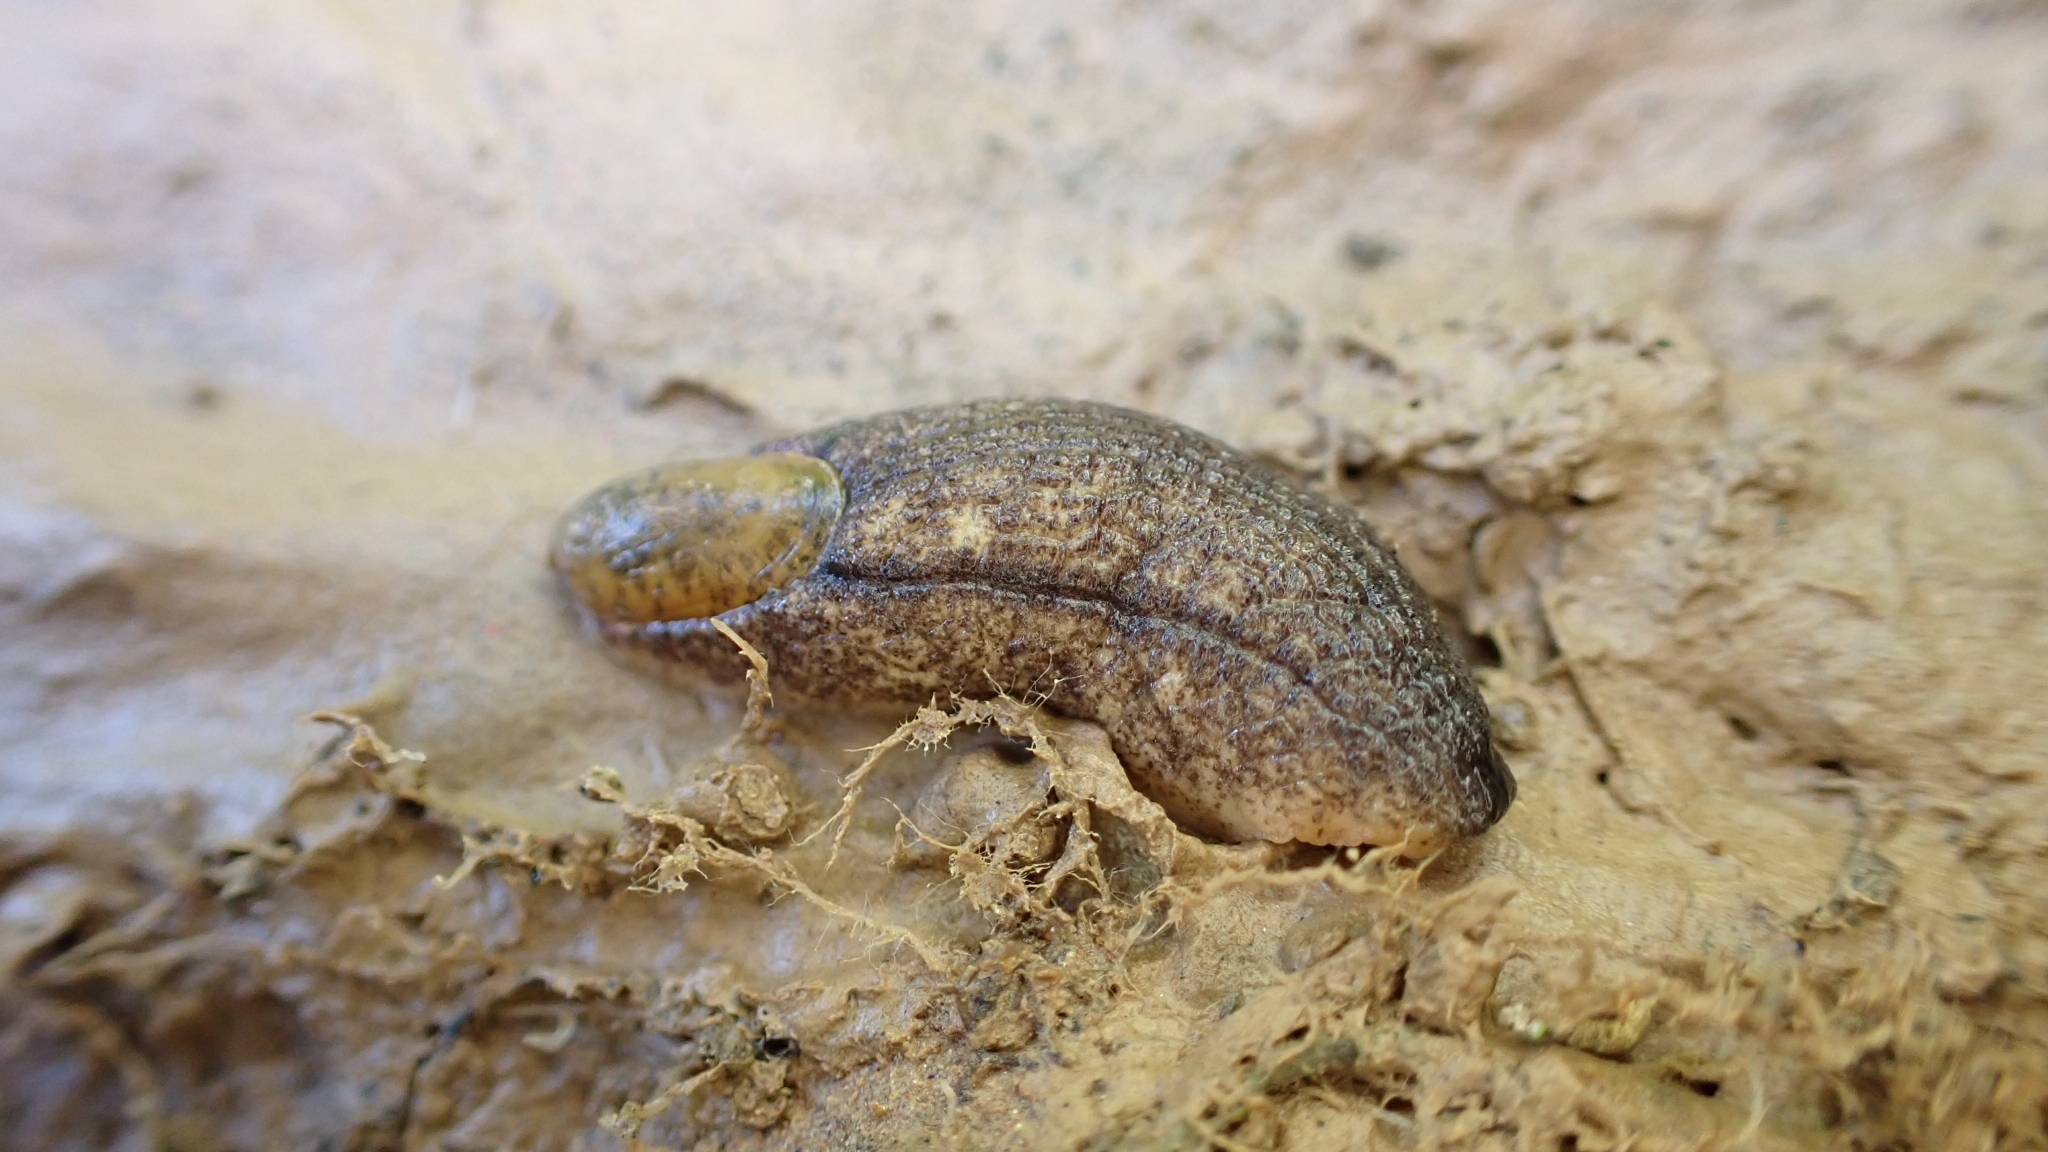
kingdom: Animalia
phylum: Mollusca
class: Gastropoda
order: Stylommatophora
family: Testacellidae
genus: Testacella
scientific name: Testacella maugei
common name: Mauge's slug
